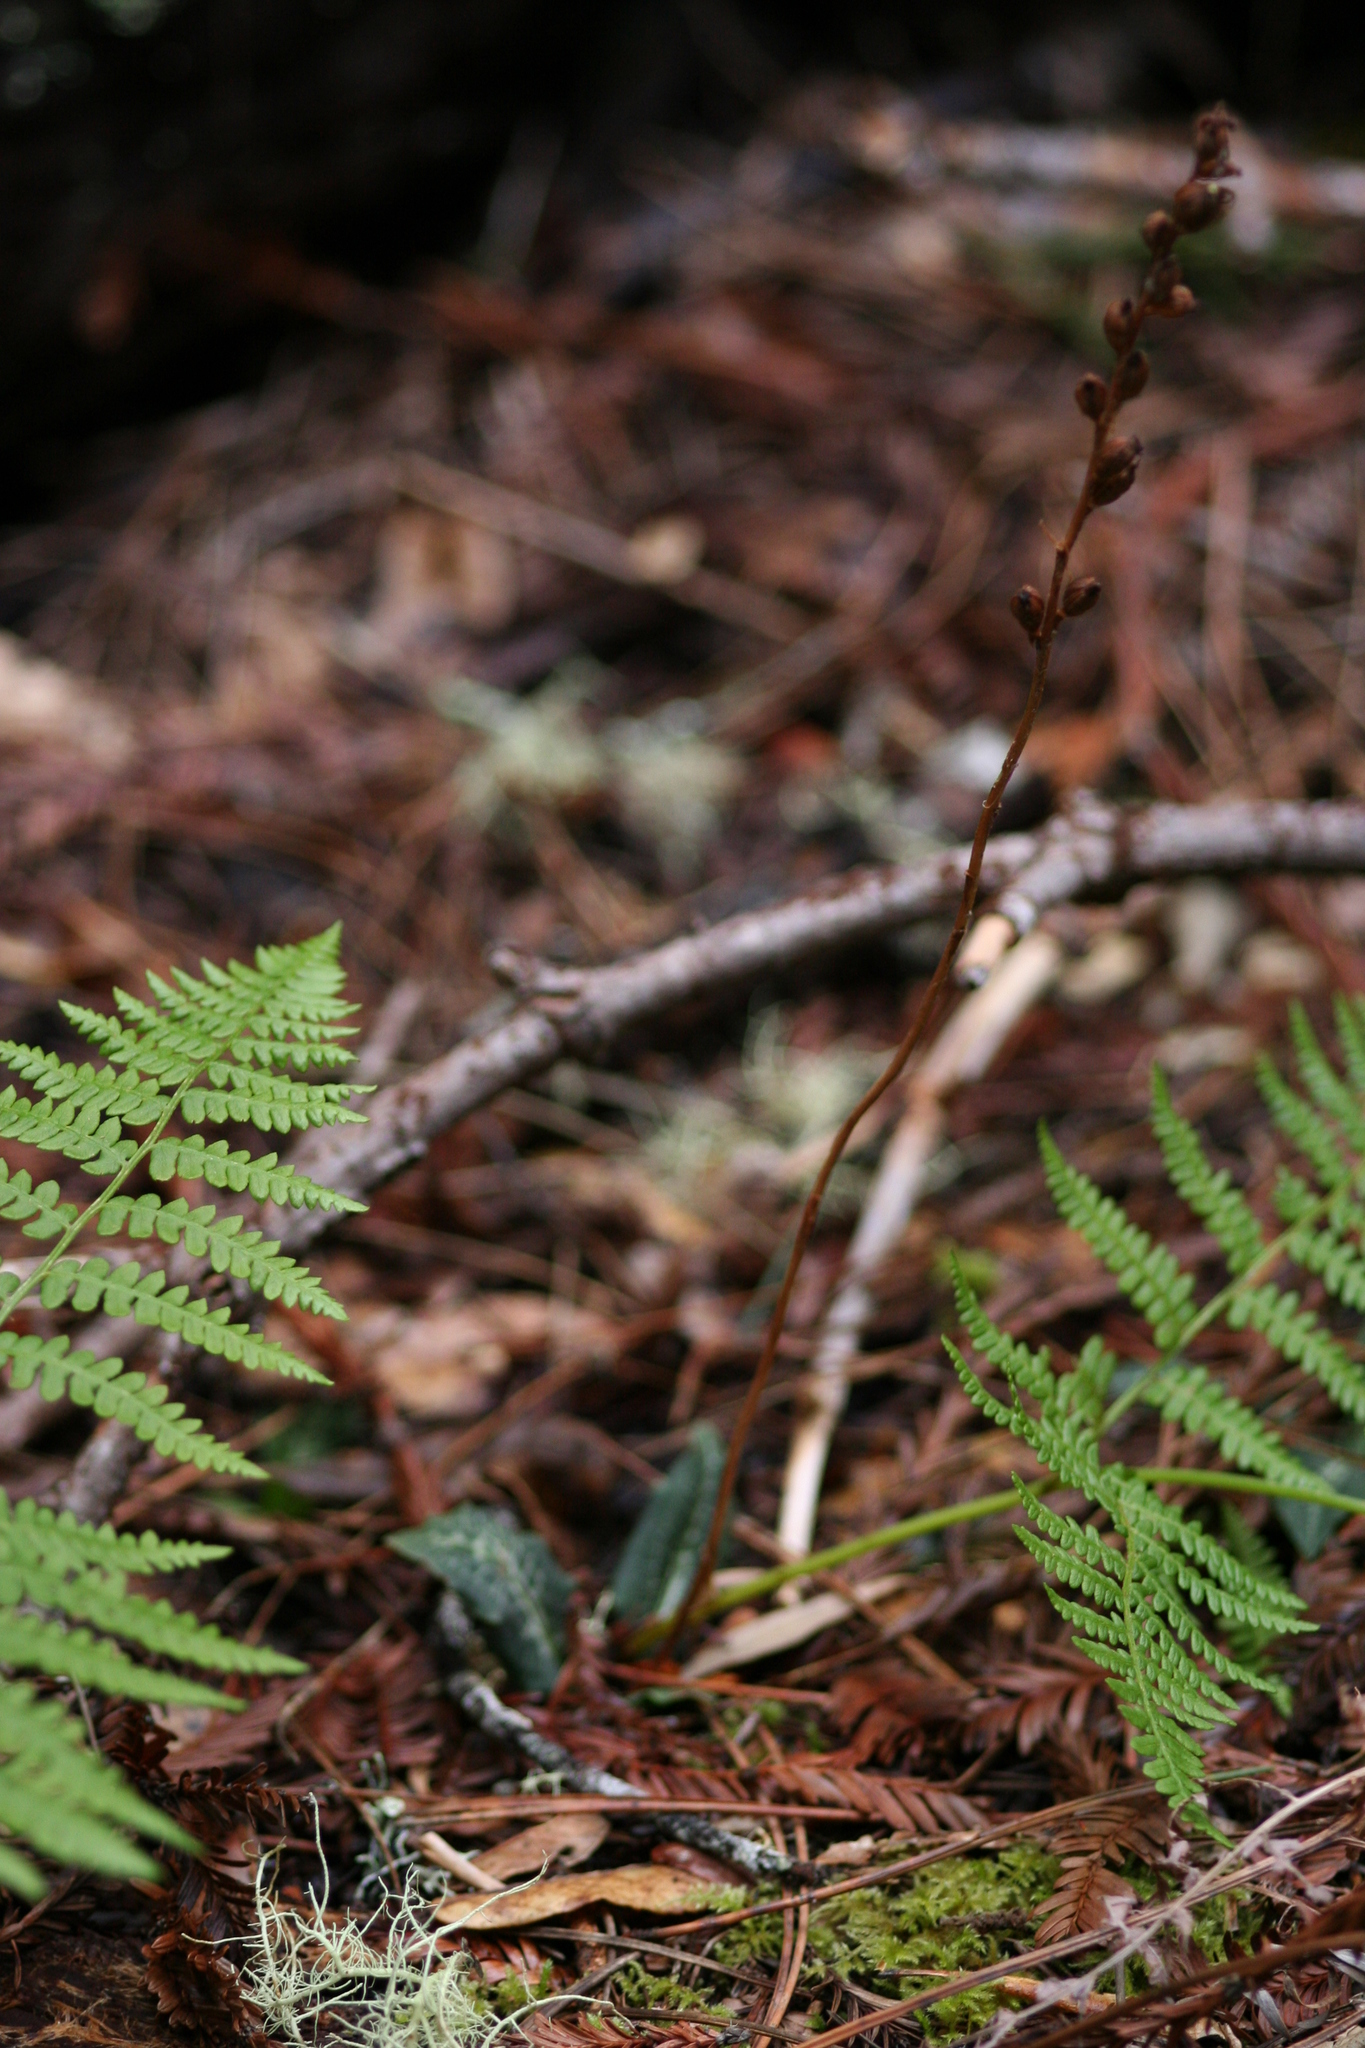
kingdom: Plantae
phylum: Tracheophyta
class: Liliopsida
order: Asparagales
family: Orchidaceae
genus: Goodyera
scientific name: Goodyera oblongifolia
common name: Giant rattlesnake-plantain
